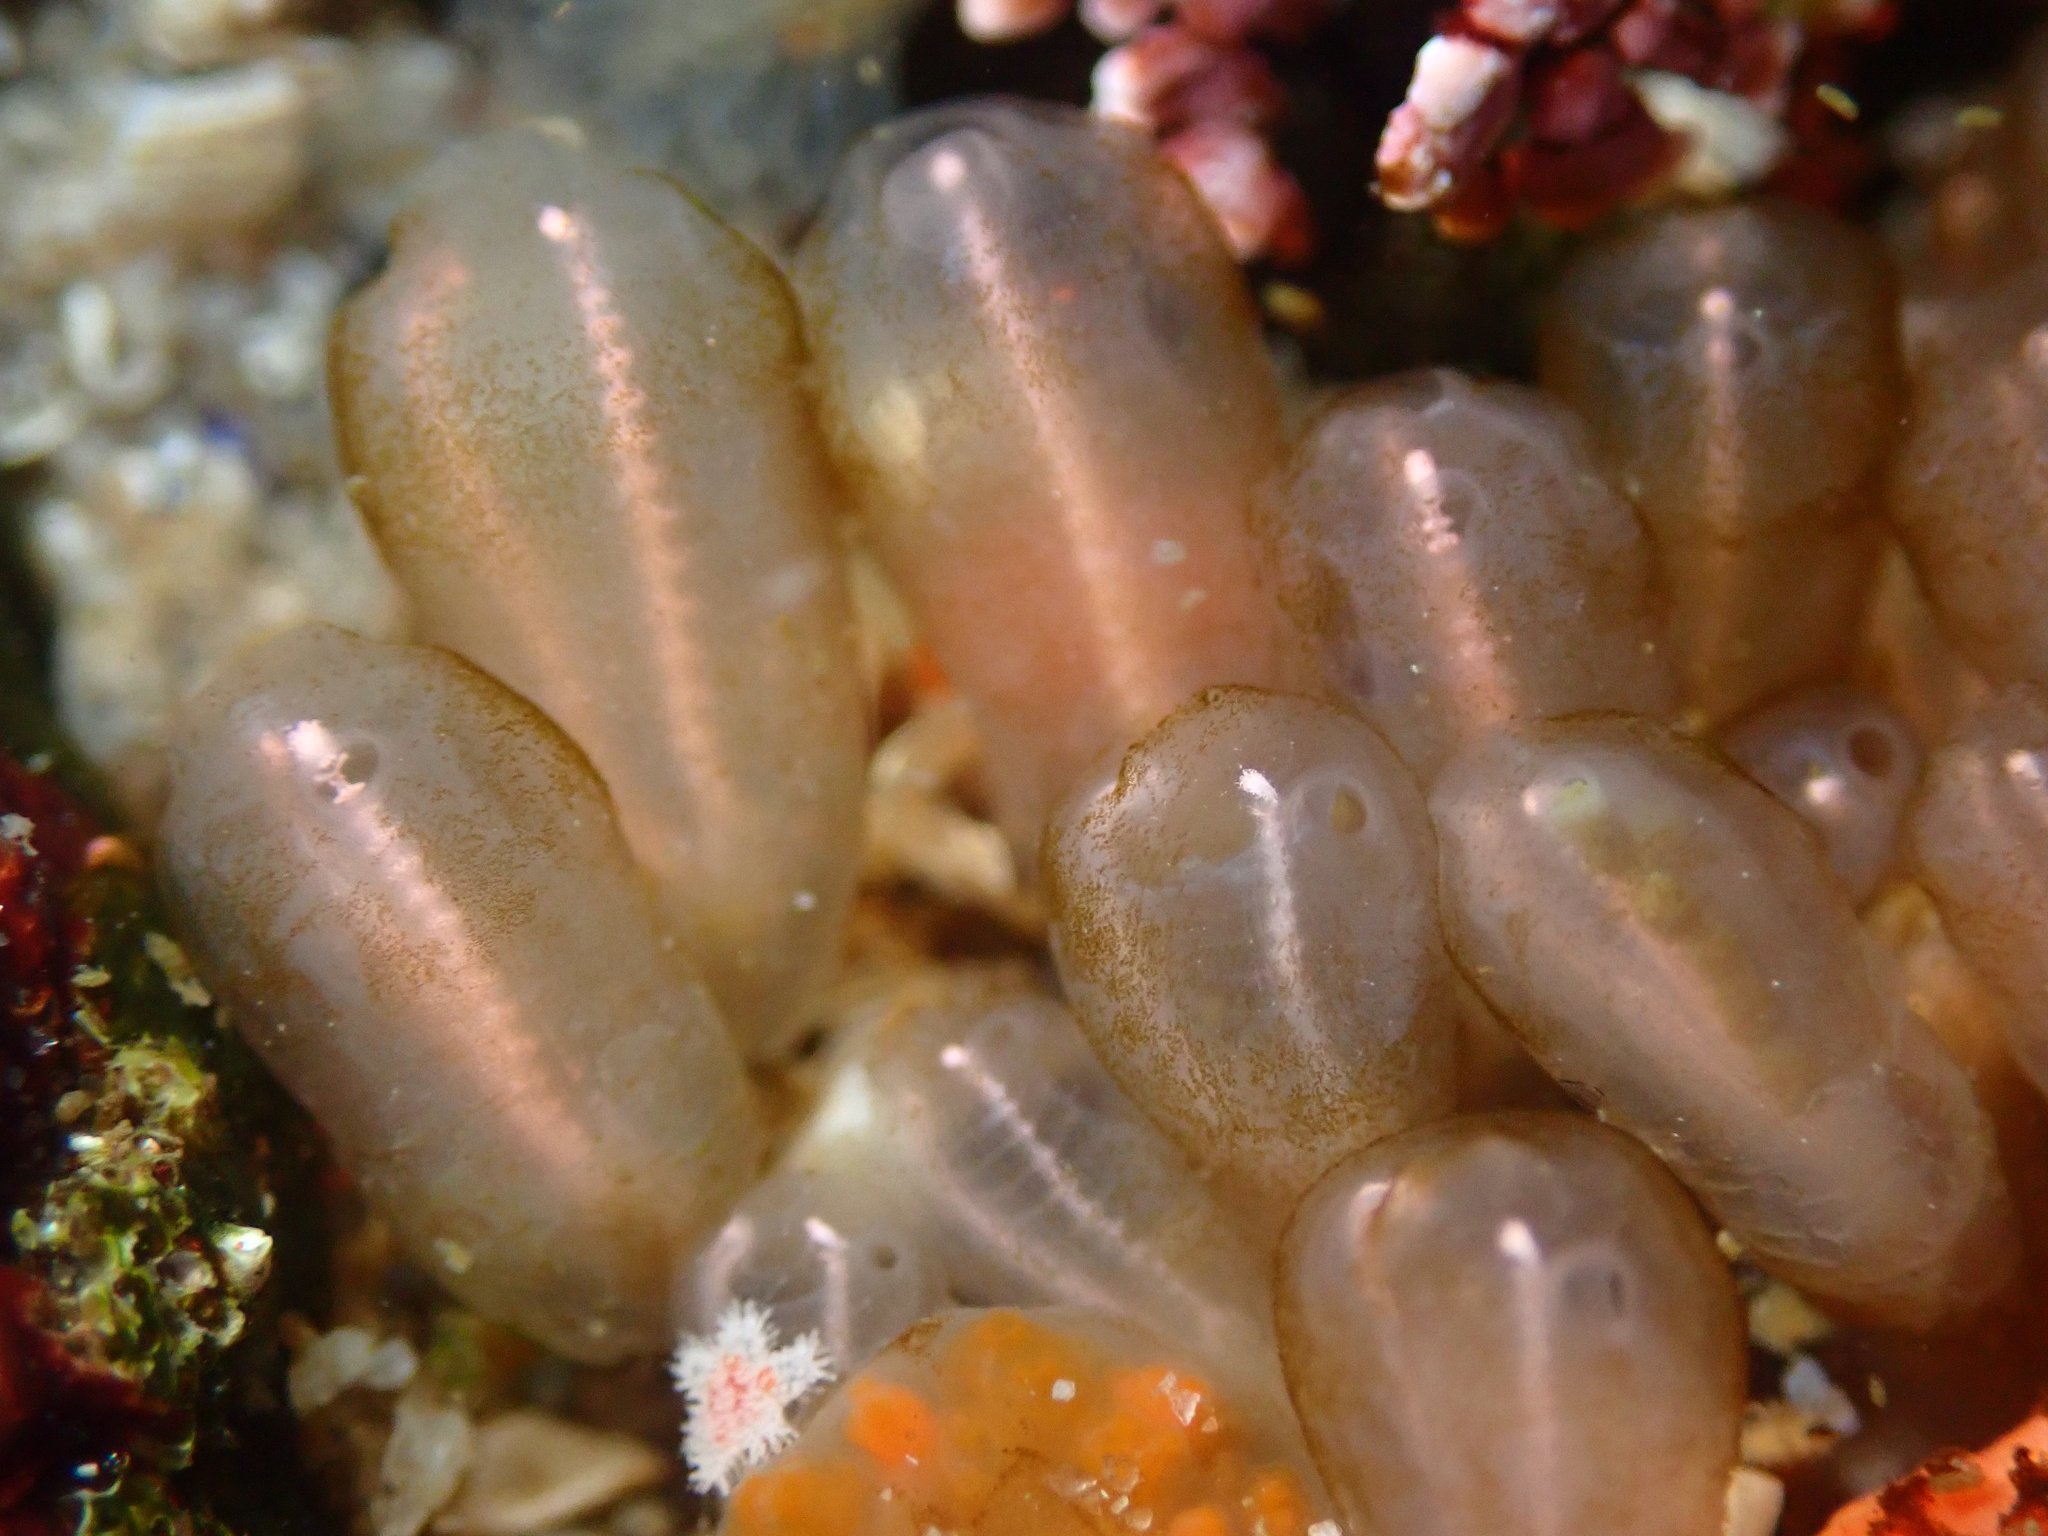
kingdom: Animalia
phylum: Chordata
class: Ascidiacea
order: Aplousobranchia
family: Clavelinidae
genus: Clavelina
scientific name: Clavelina huntsmani
